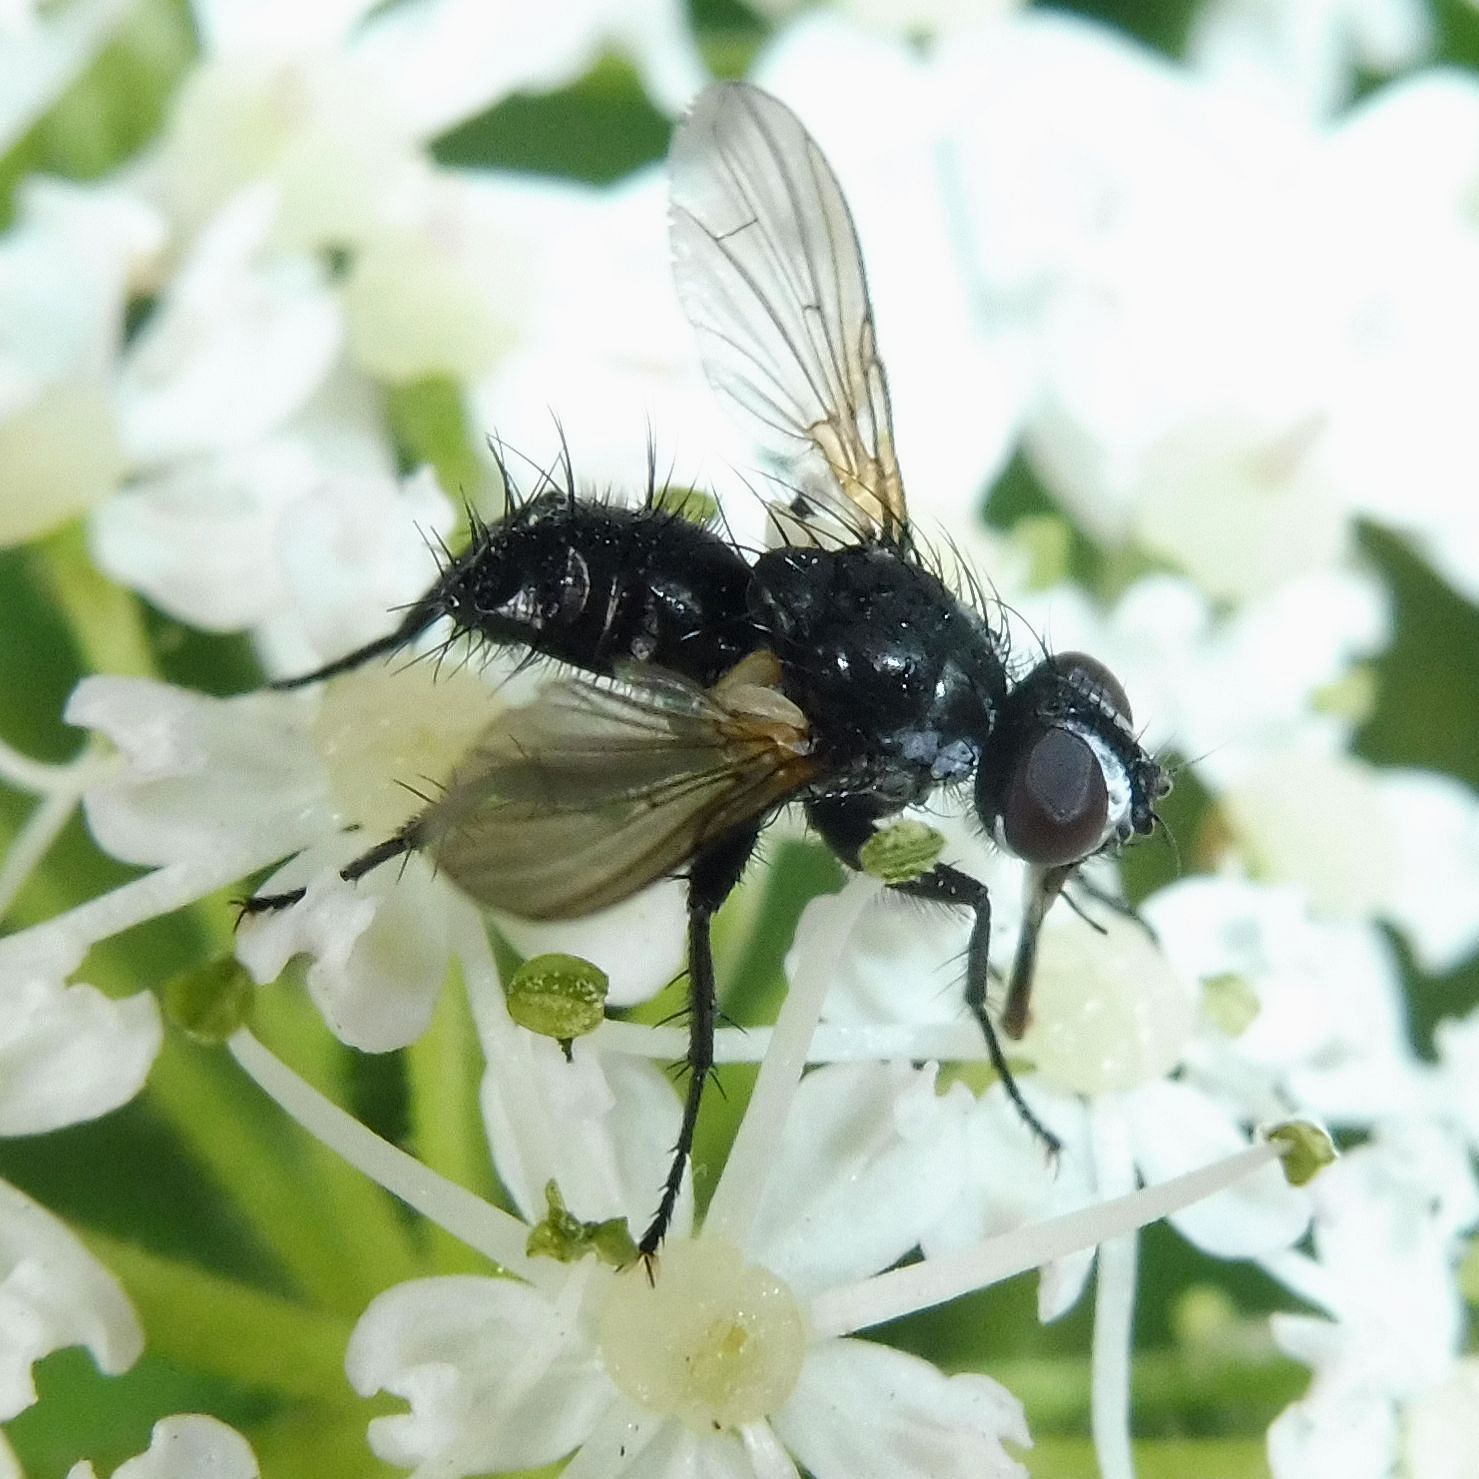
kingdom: Animalia
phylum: Arthropoda
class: Insecta
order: Diptera
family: Tachinidae
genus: Phania
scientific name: Phania funesta
